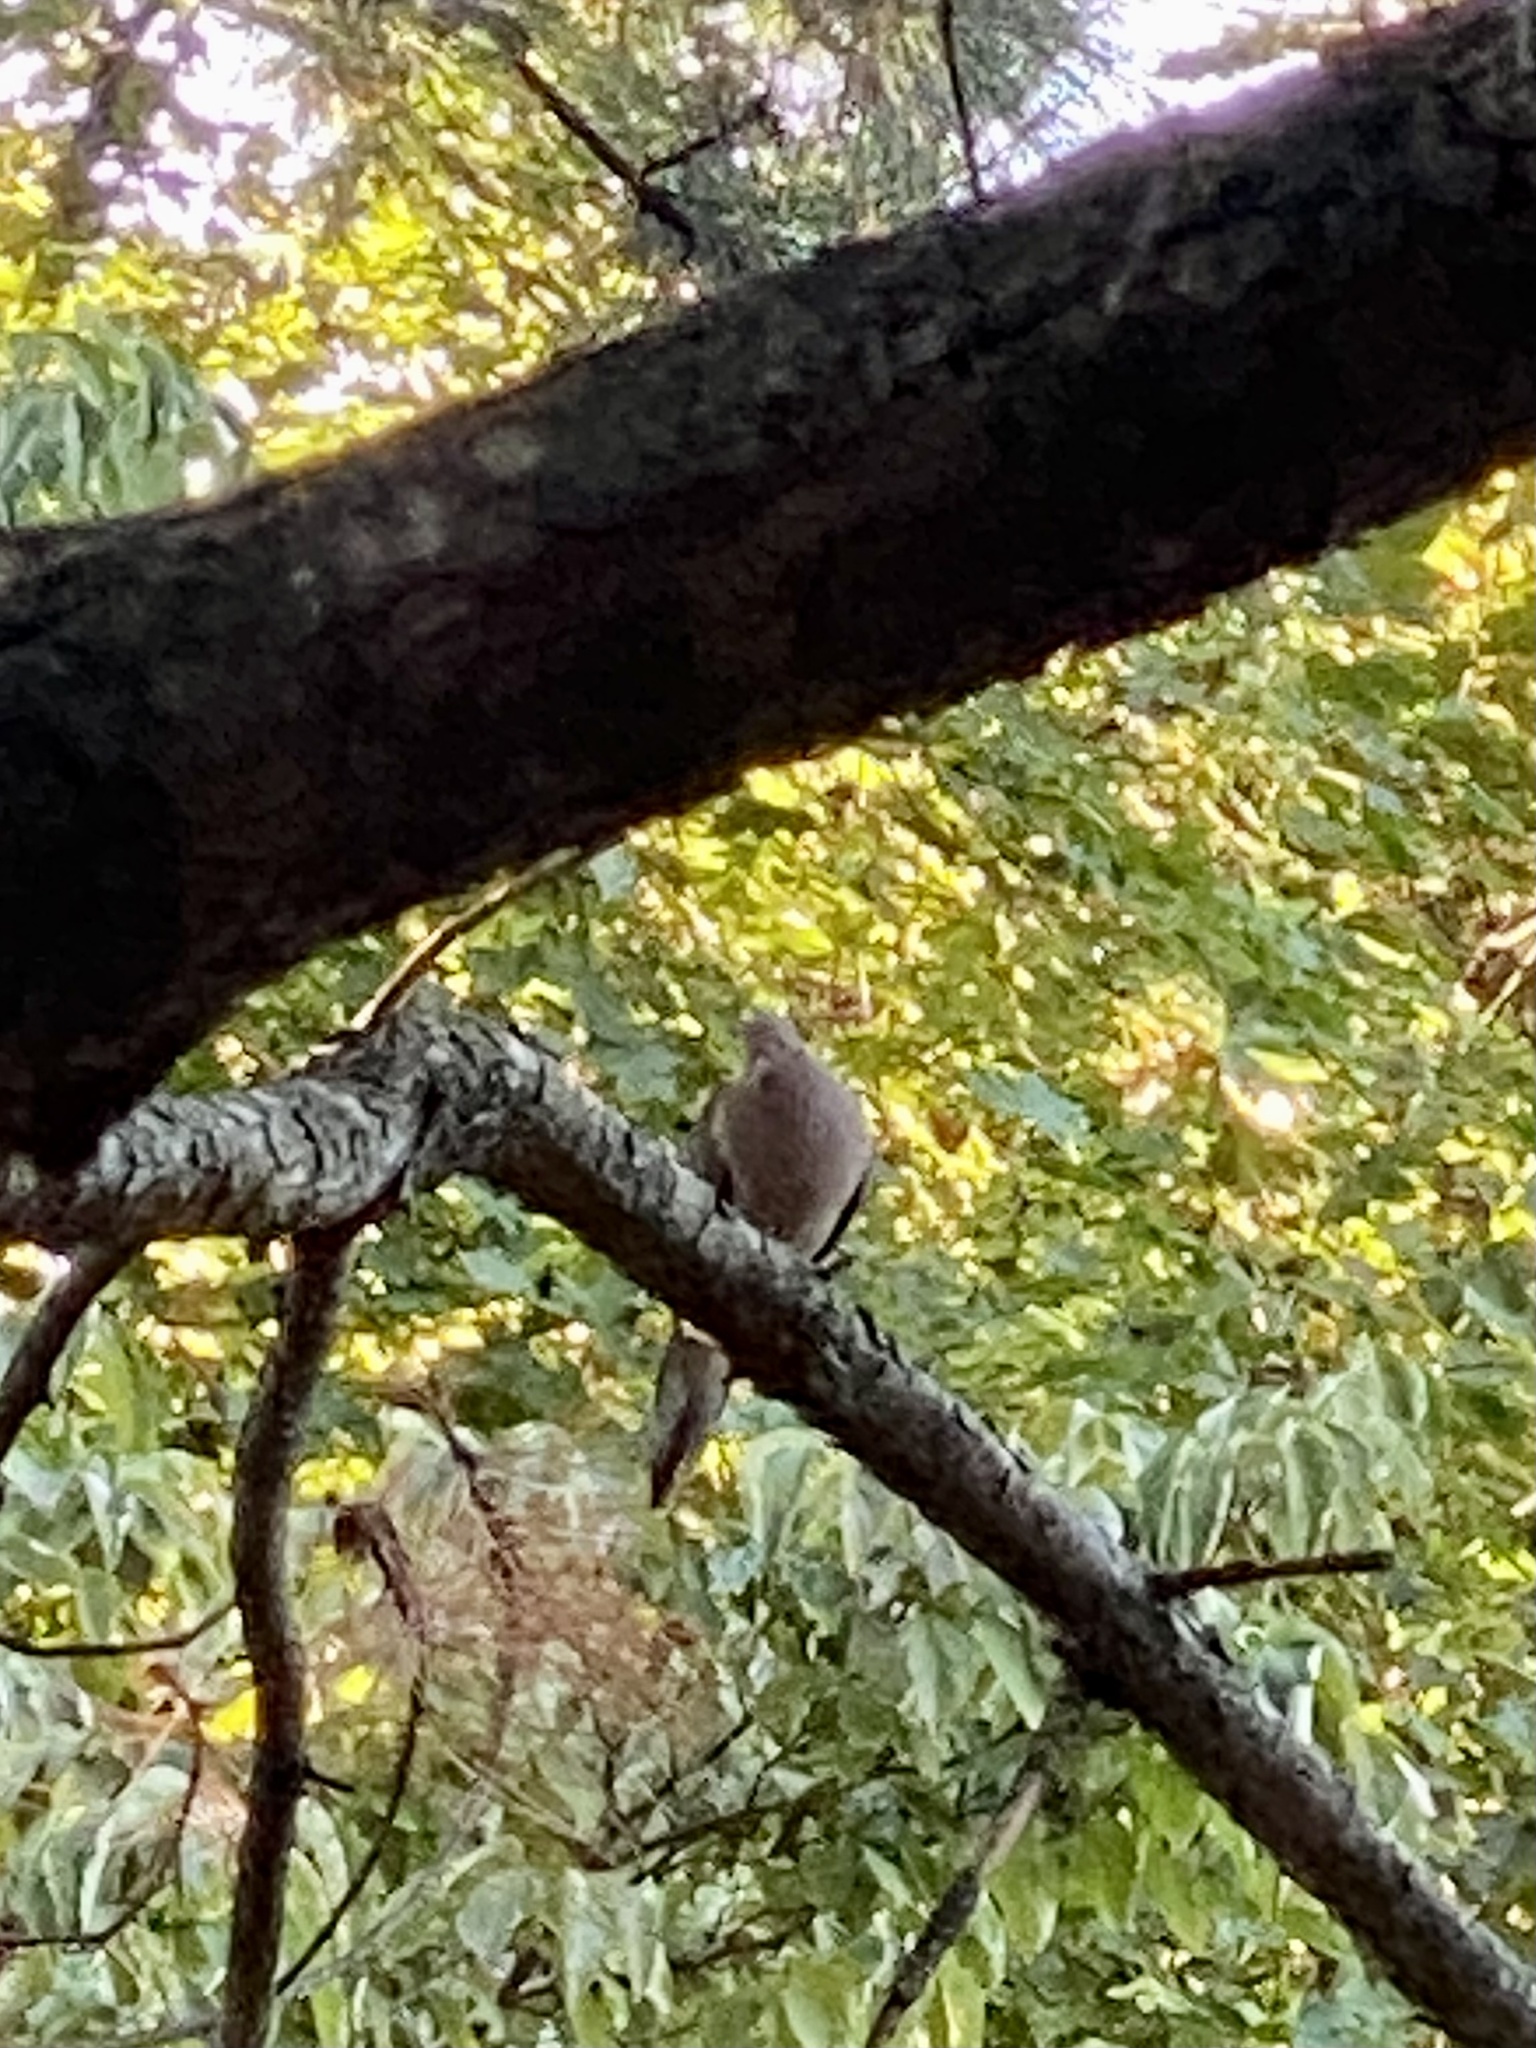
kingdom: Animalia
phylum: Chordata
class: Aves
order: Columbiformes
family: Columbidae
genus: Zenaida
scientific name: Zenaida macroura
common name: Mourning dove
